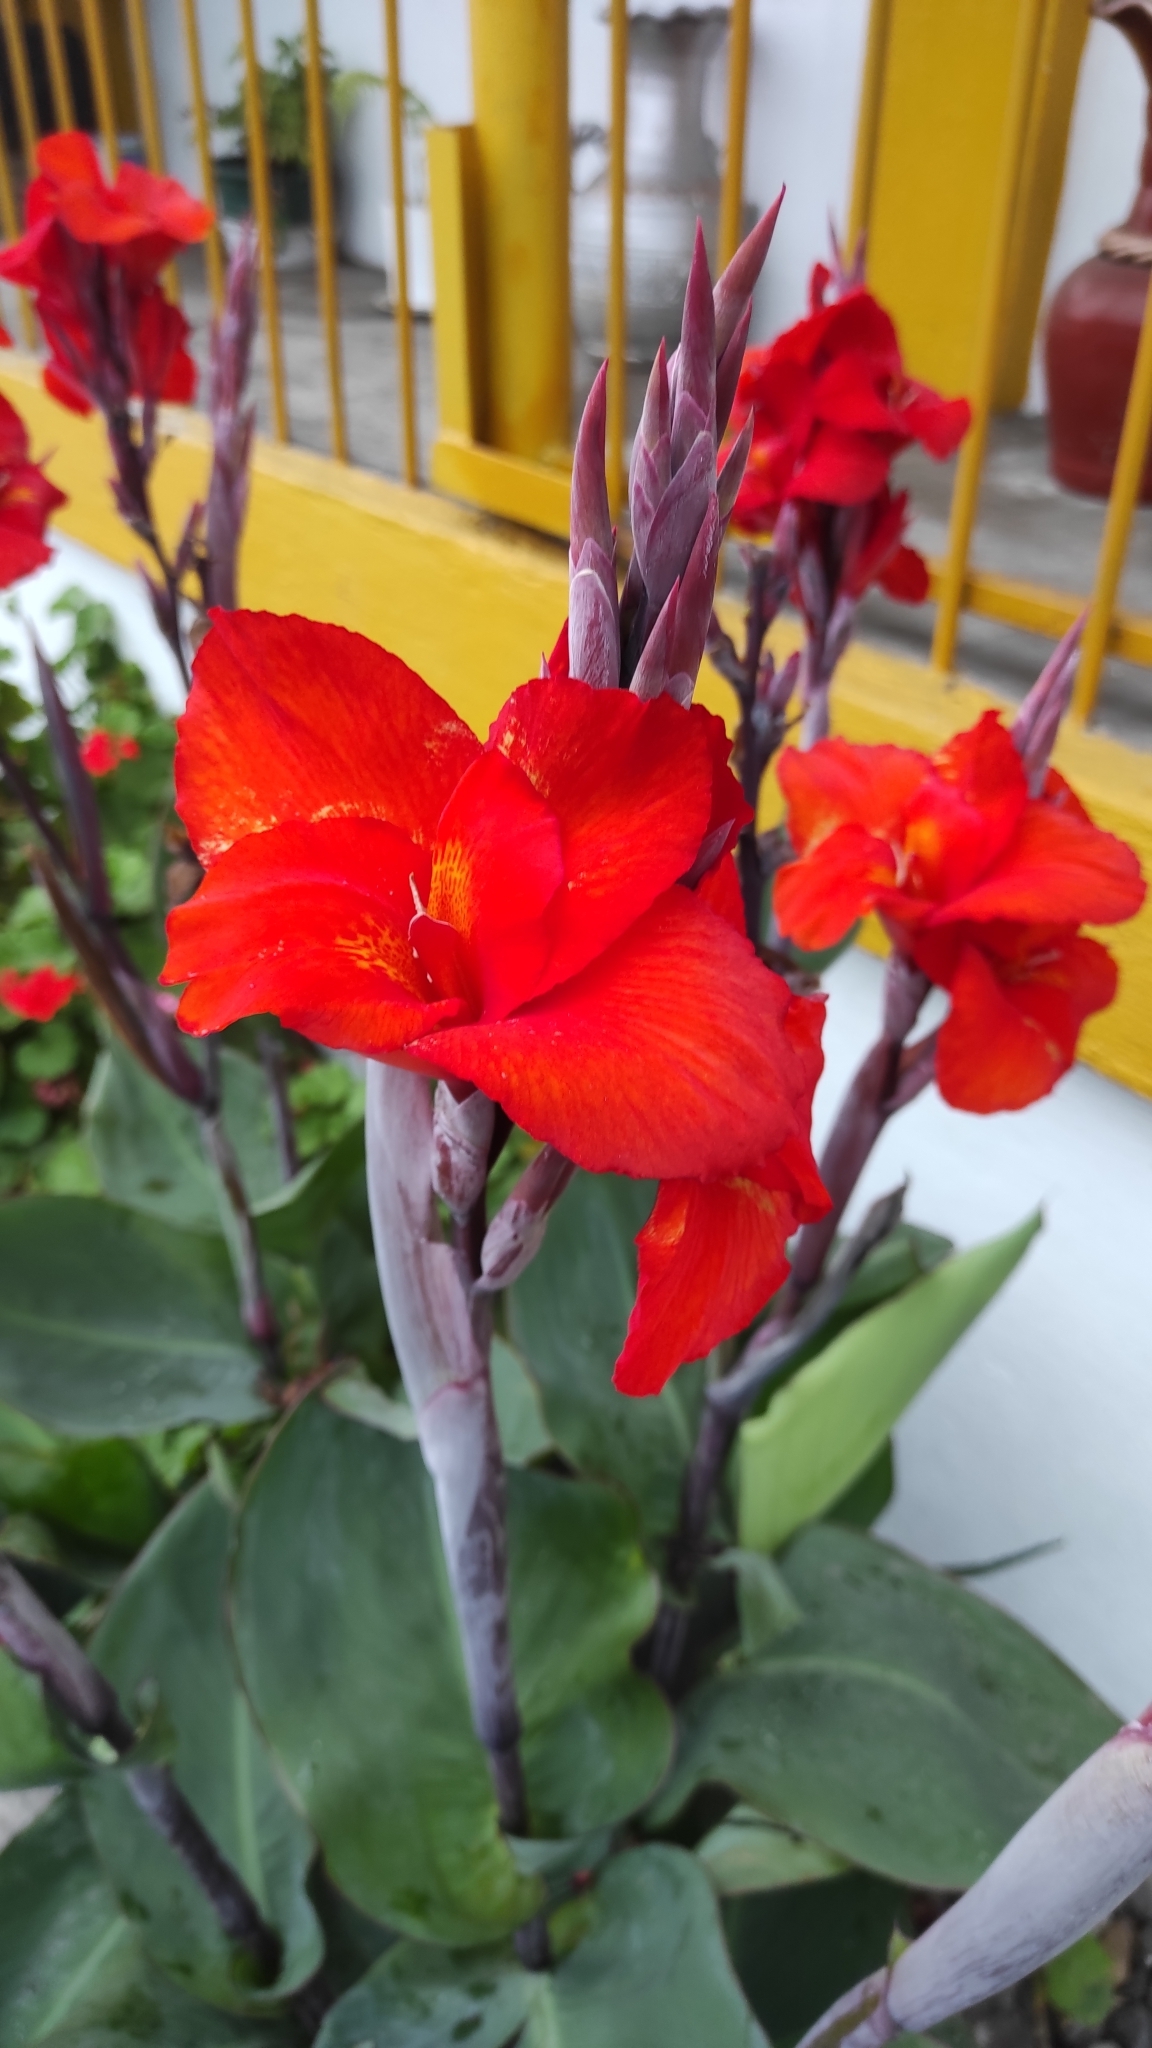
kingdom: Plantae
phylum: Tracheophyta
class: Liliopsida
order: Zingiberales
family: Cannaceae
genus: Canna
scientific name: Canna hybrida
